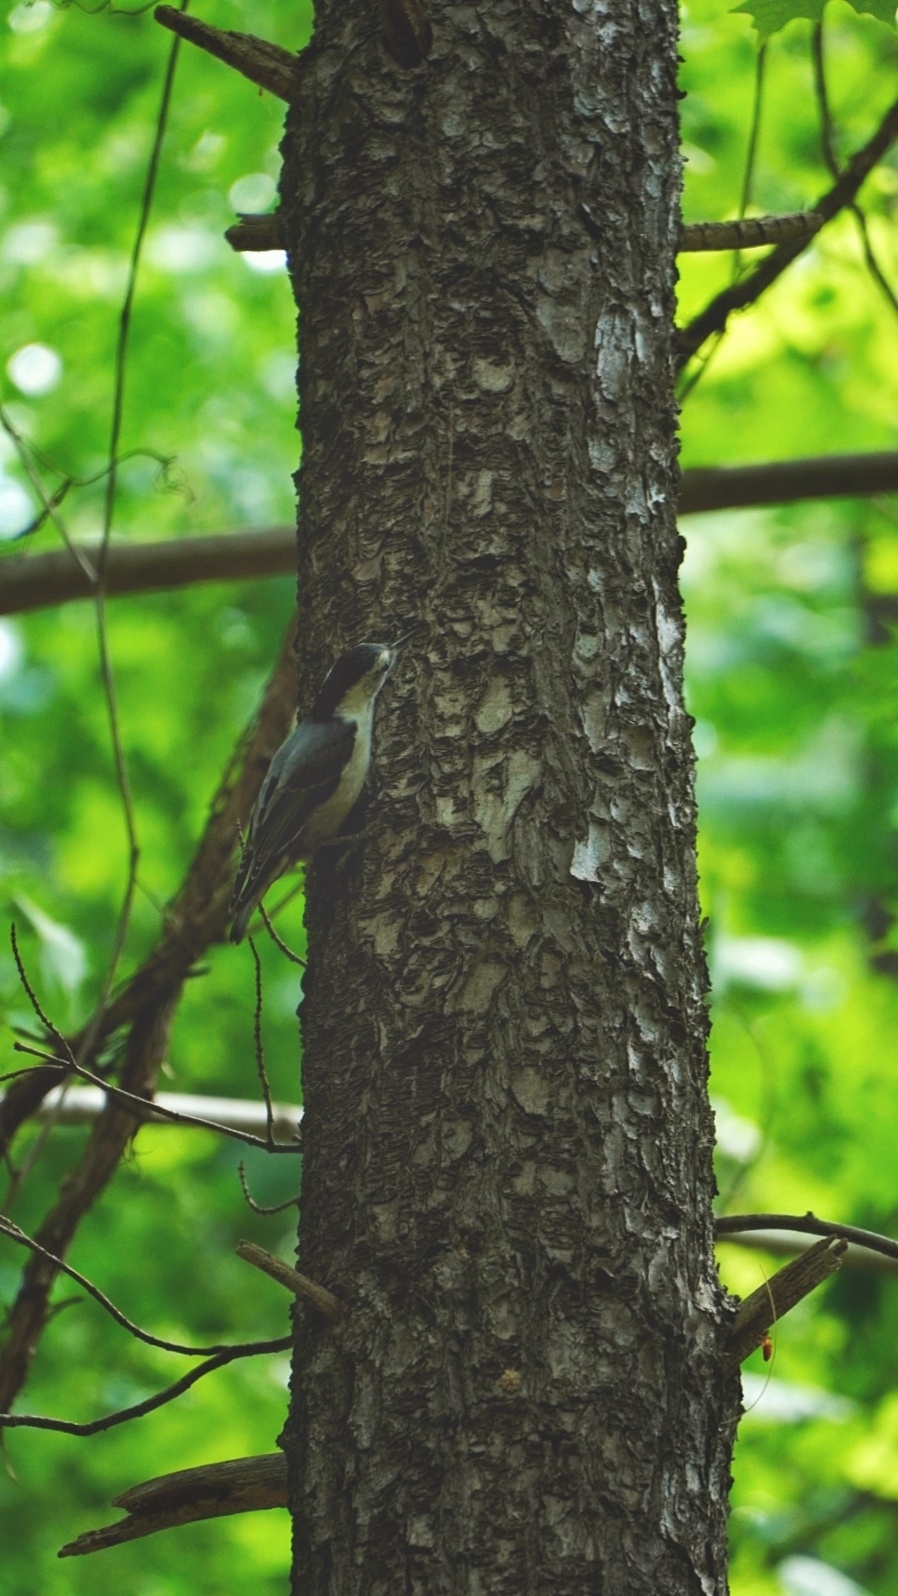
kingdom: Animalia
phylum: Chordata
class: Aves
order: Passeriformes
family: Sittidae
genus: Sitta
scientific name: Sitta carolinensis
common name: White-breasted nuthatch
